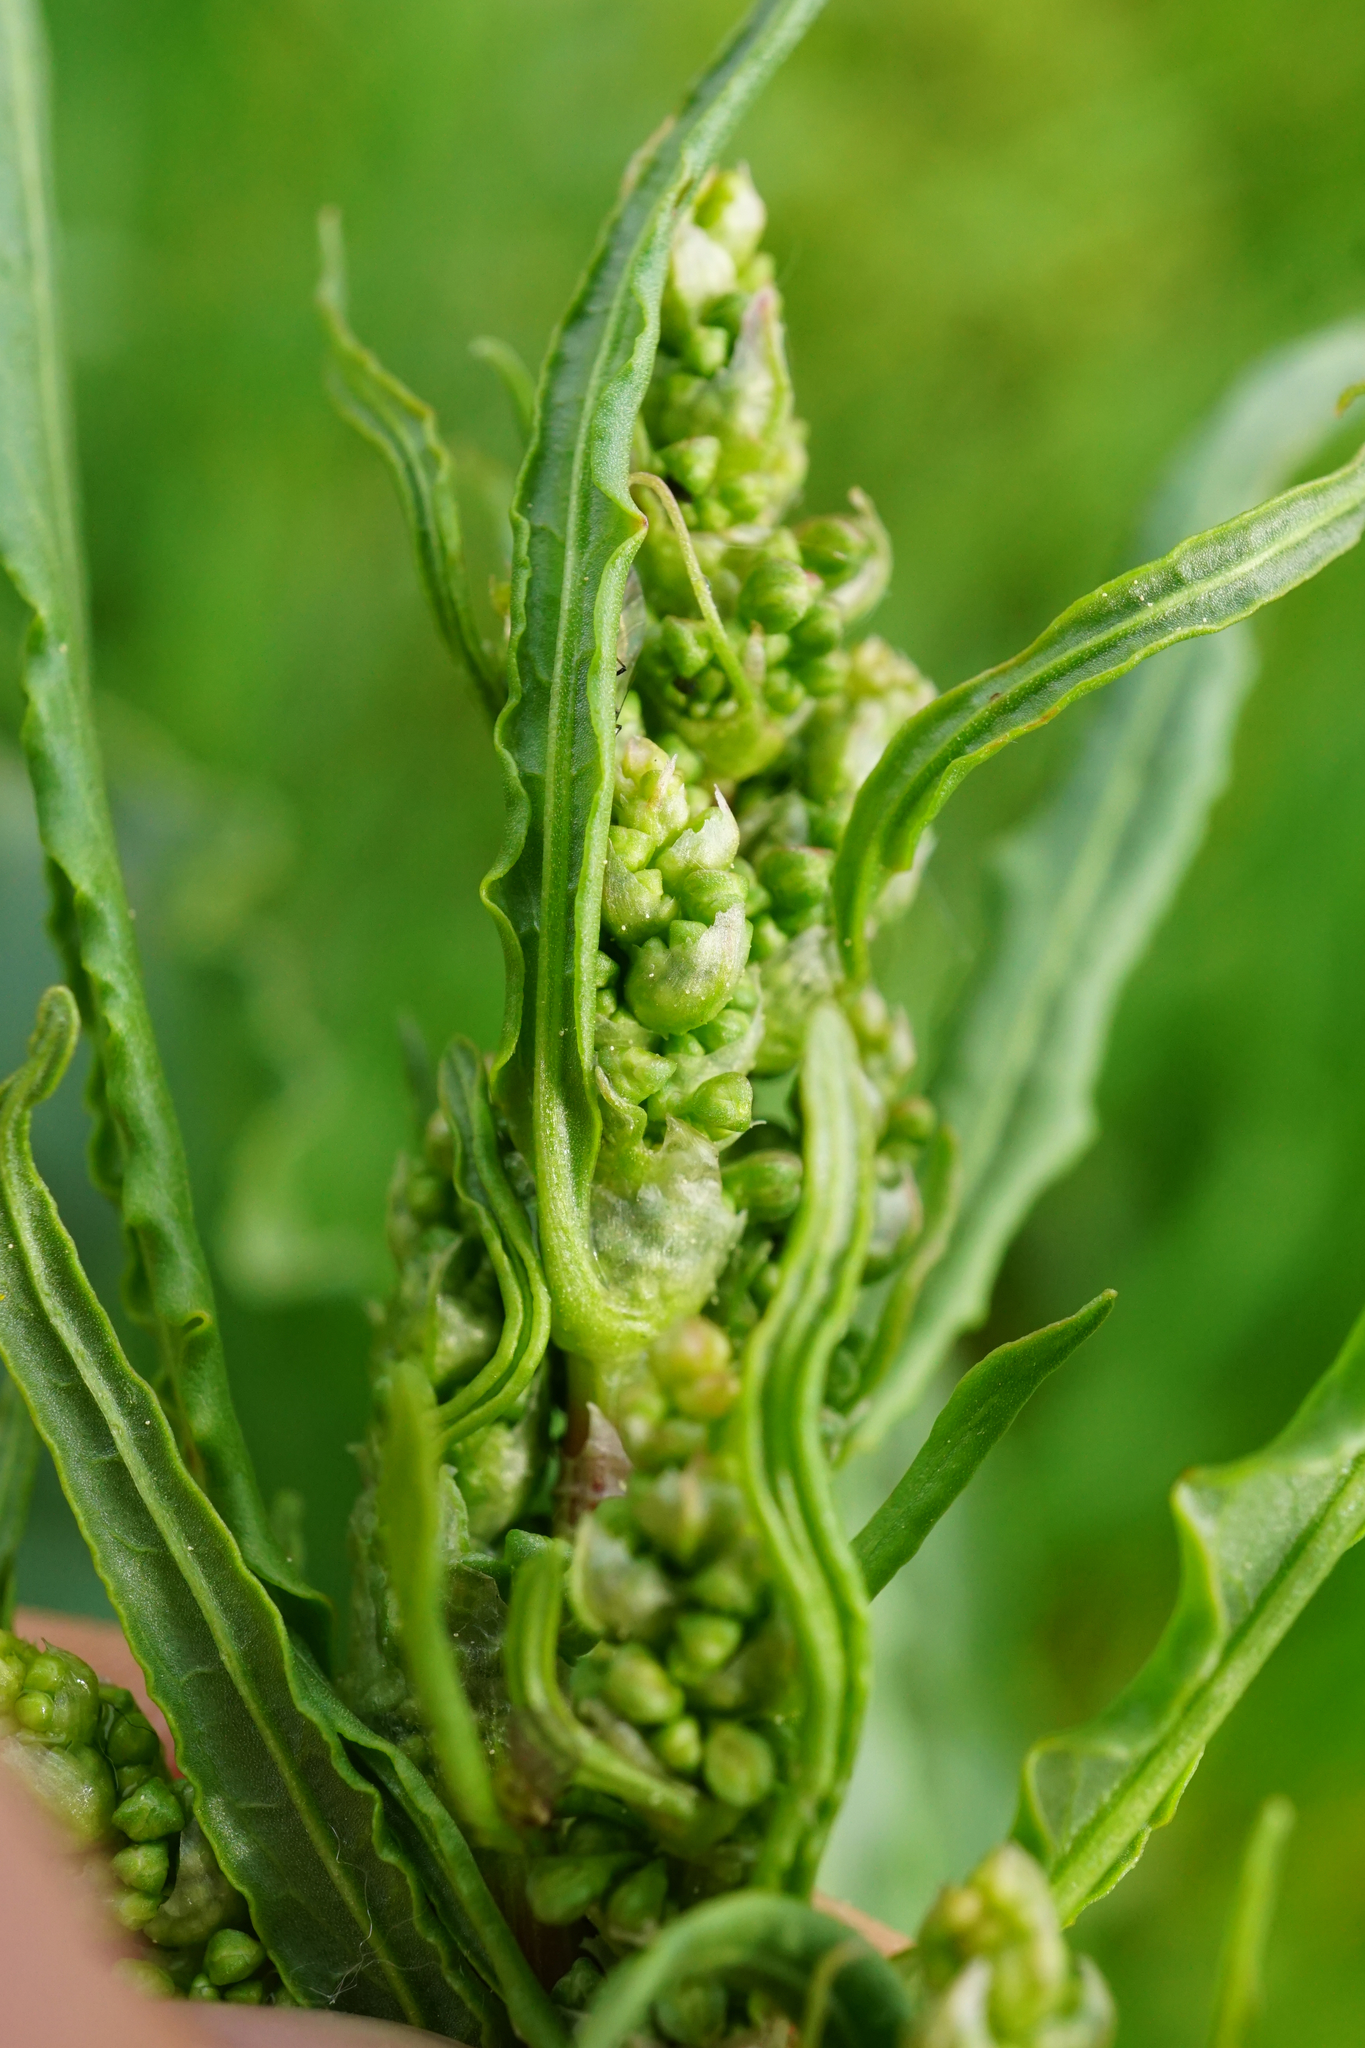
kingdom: Plantae
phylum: Tracheophyta
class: Magnoliopsida
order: Caryophyllales
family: Polygonaceae
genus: Rumex
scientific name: Rumex crispus
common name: Curled dock
